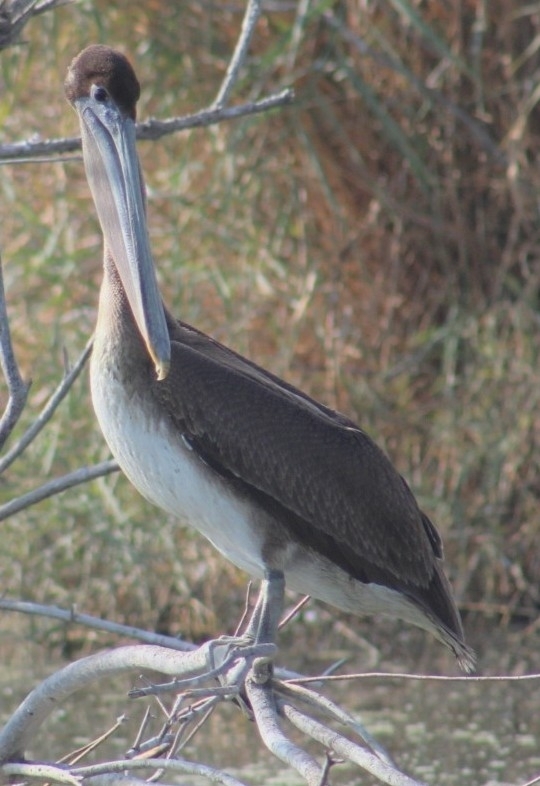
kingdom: Animalia
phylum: Chordata
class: Aves
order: Pelecaniformes
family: Pelecanidae
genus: Pelecanus
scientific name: Pelecanus occidentalis
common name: Brown pelican
